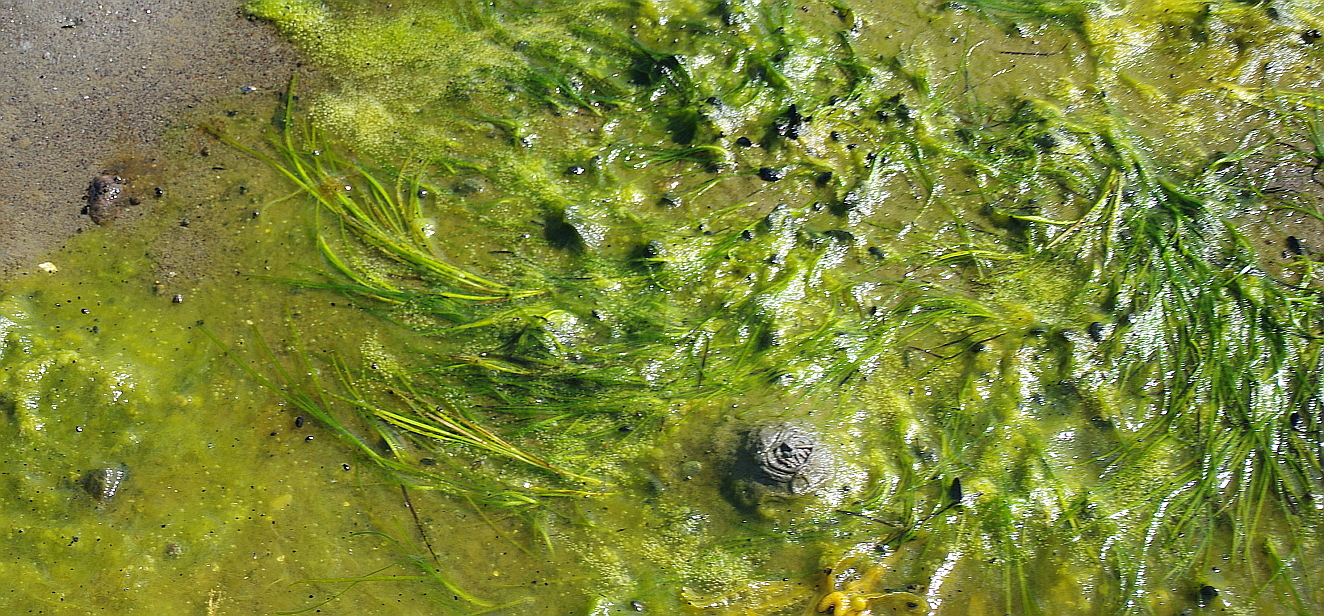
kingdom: Plantae
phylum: Tracheophyta
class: Liliopsida
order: Alismatales
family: Zosteraceae
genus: Zostera
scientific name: Zostera marina
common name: Eelgrass
